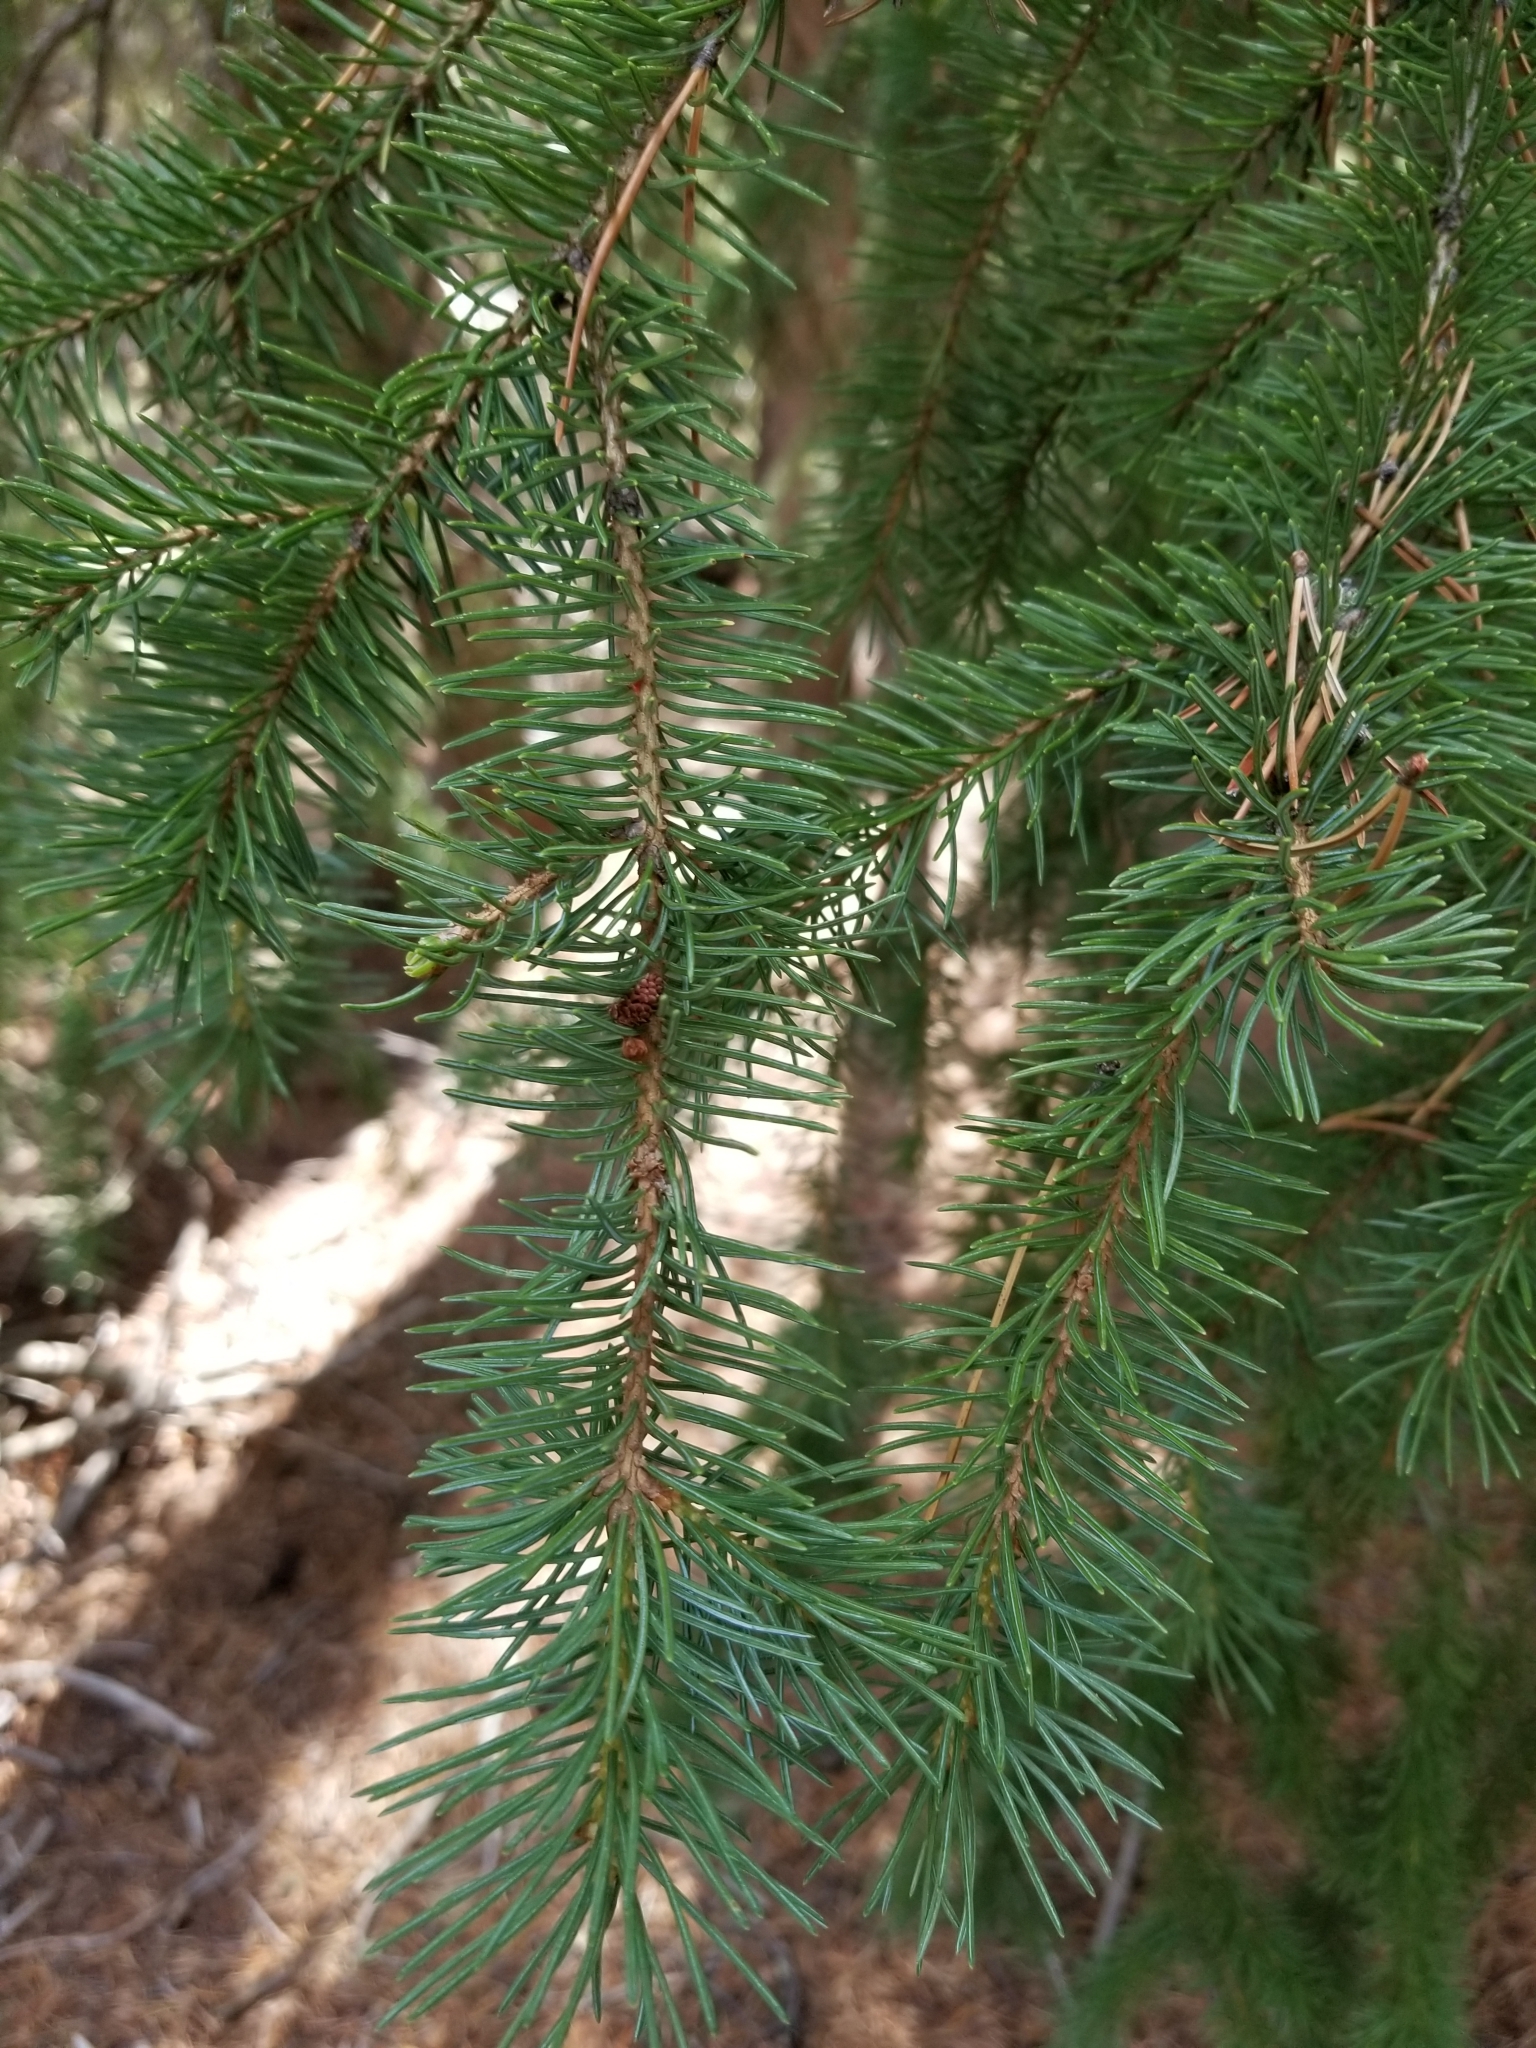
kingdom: Plantae
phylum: Tracheophyta
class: Pinopsida
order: Pinales
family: Pinaceae
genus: Picea
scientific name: Picea engelmannii
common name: Engelmann spruce
